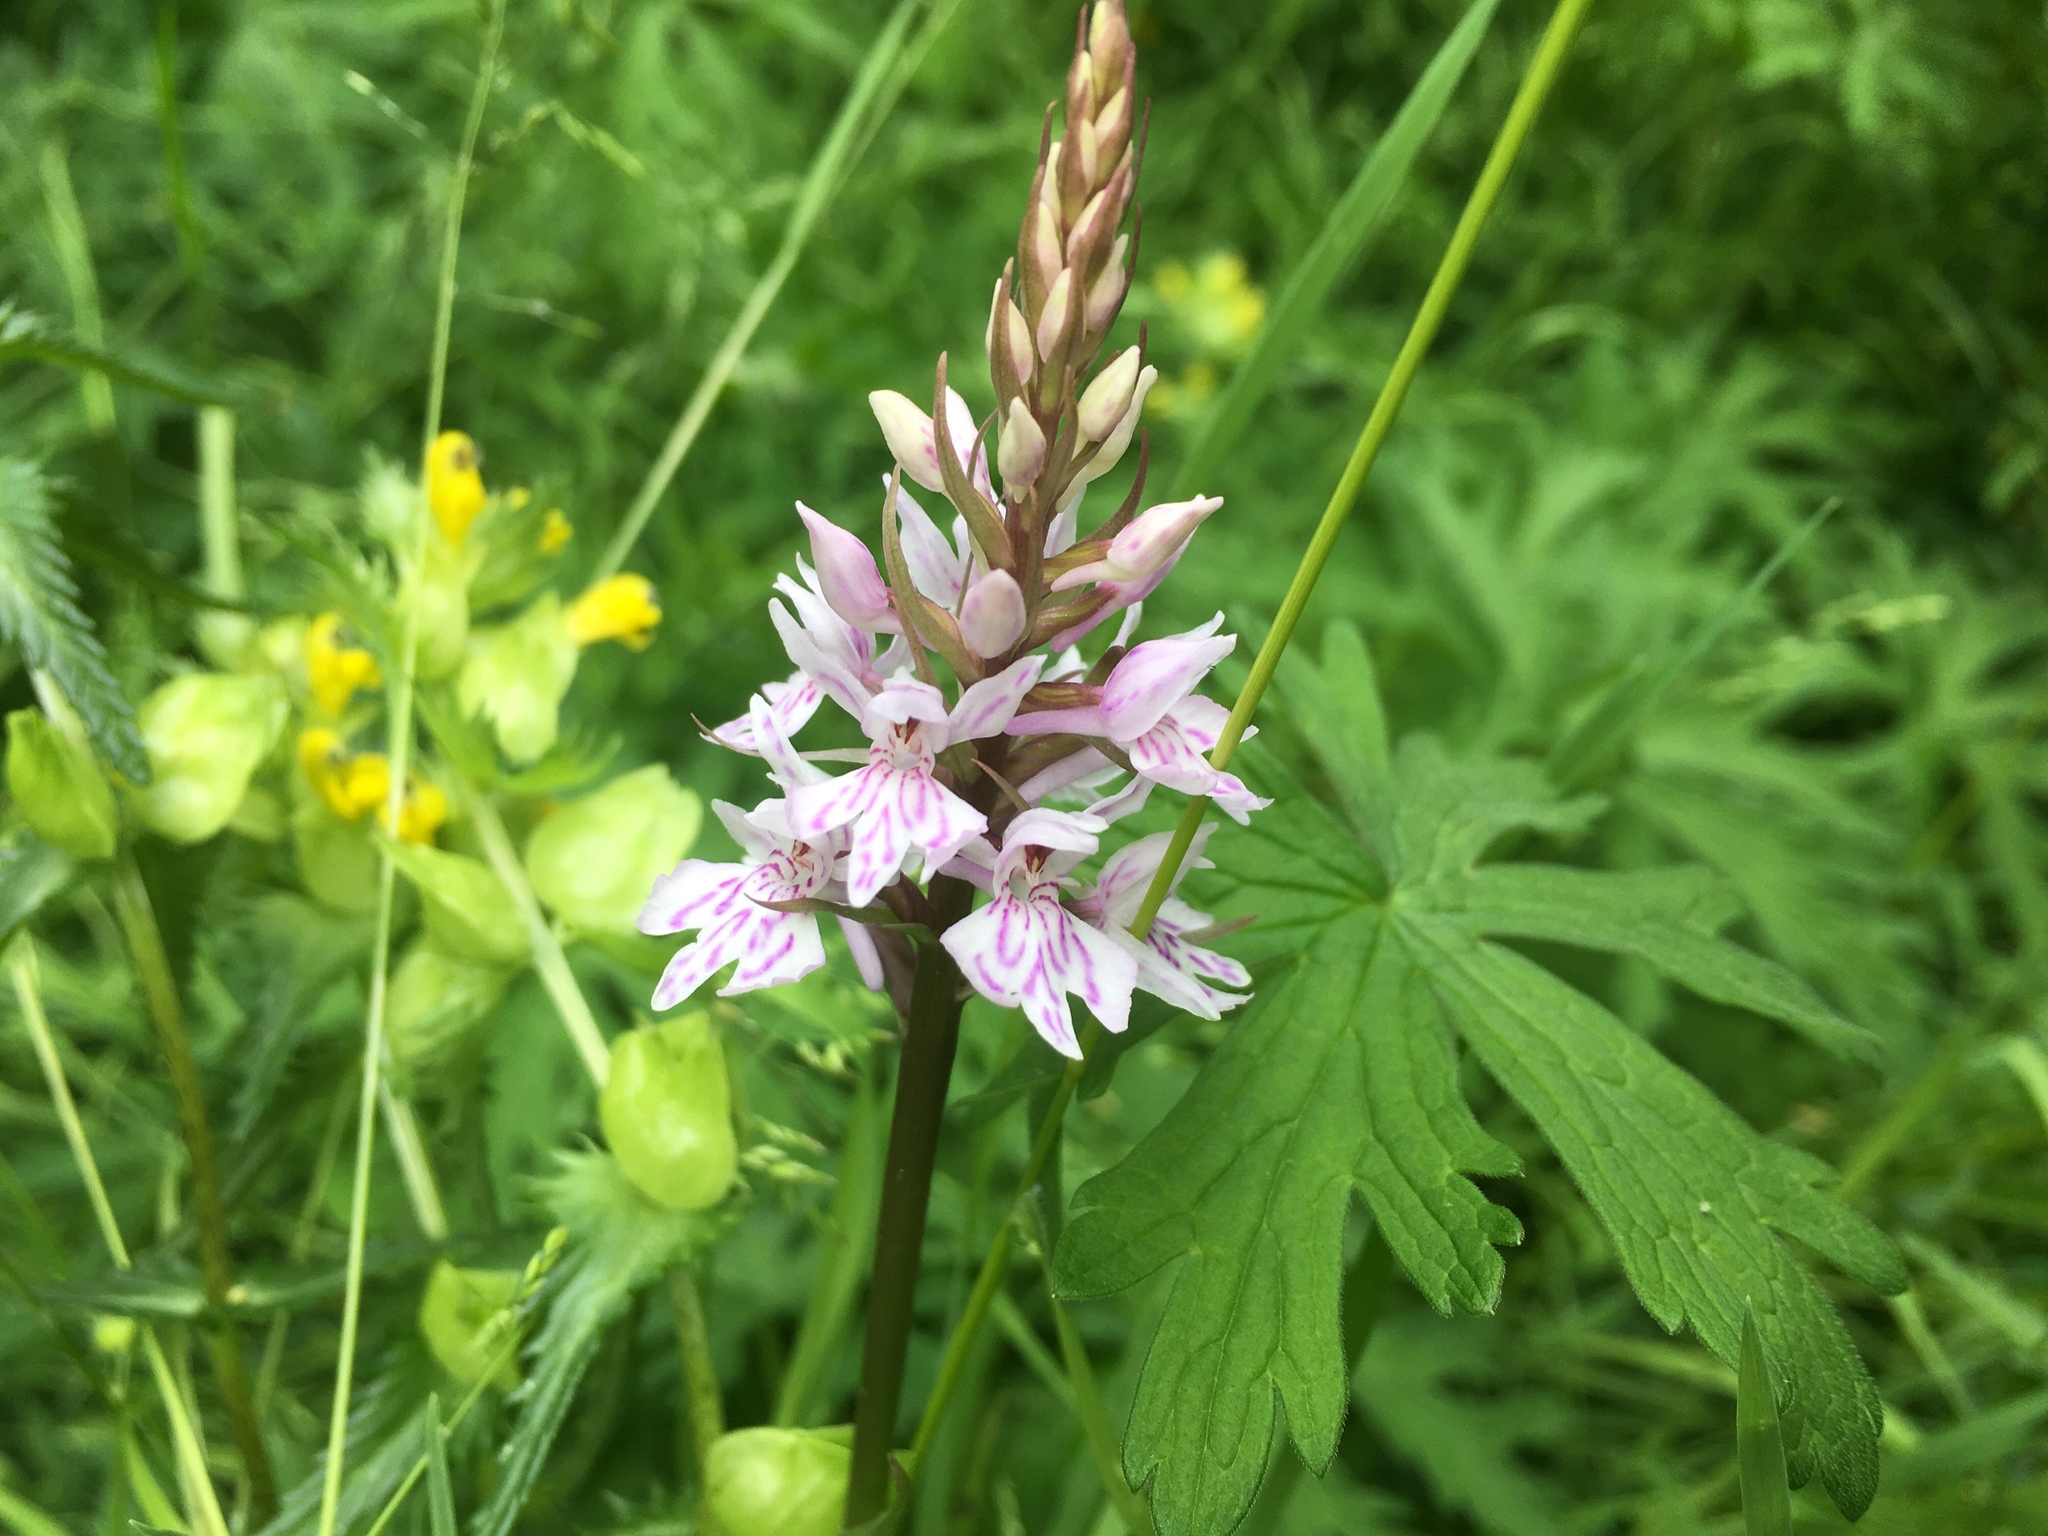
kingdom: Plantae
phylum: Tracheophyta
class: Liliopsida
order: Asparagales
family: Orchidaceae
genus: Dactylorhiza
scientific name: Dactylorhiza maculata
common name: Heath spotted-orchid
